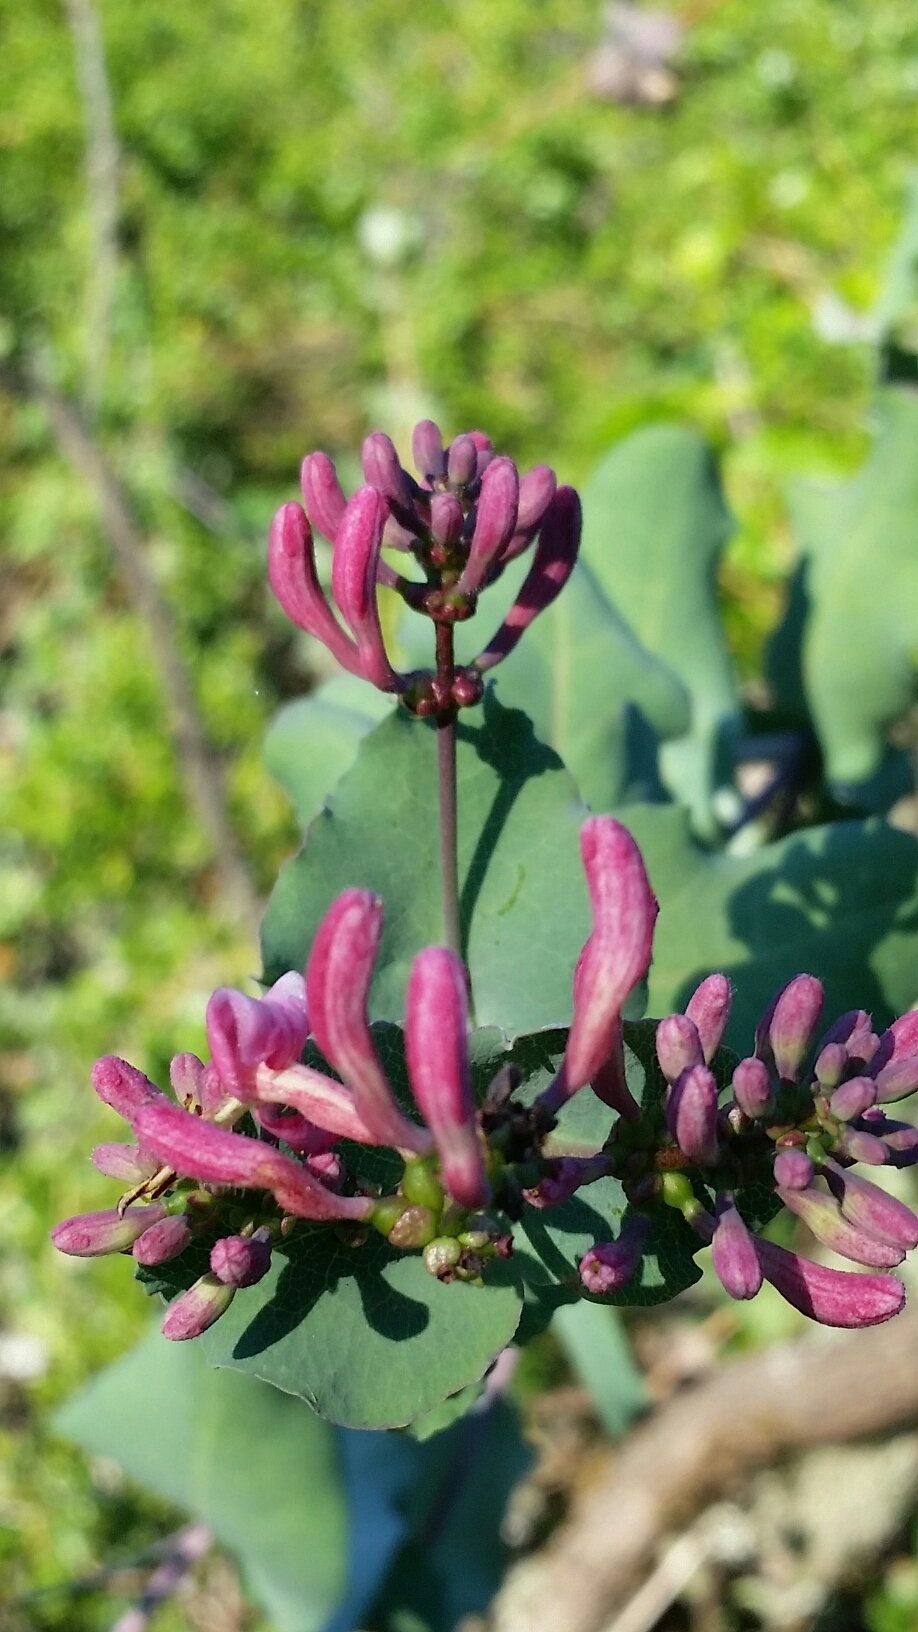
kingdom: Plantae
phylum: Tracheophyta
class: Magnoliopsida
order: Dipsacales
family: Caprifoliaceae
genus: Lonicera
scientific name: Lonicera hispidula
